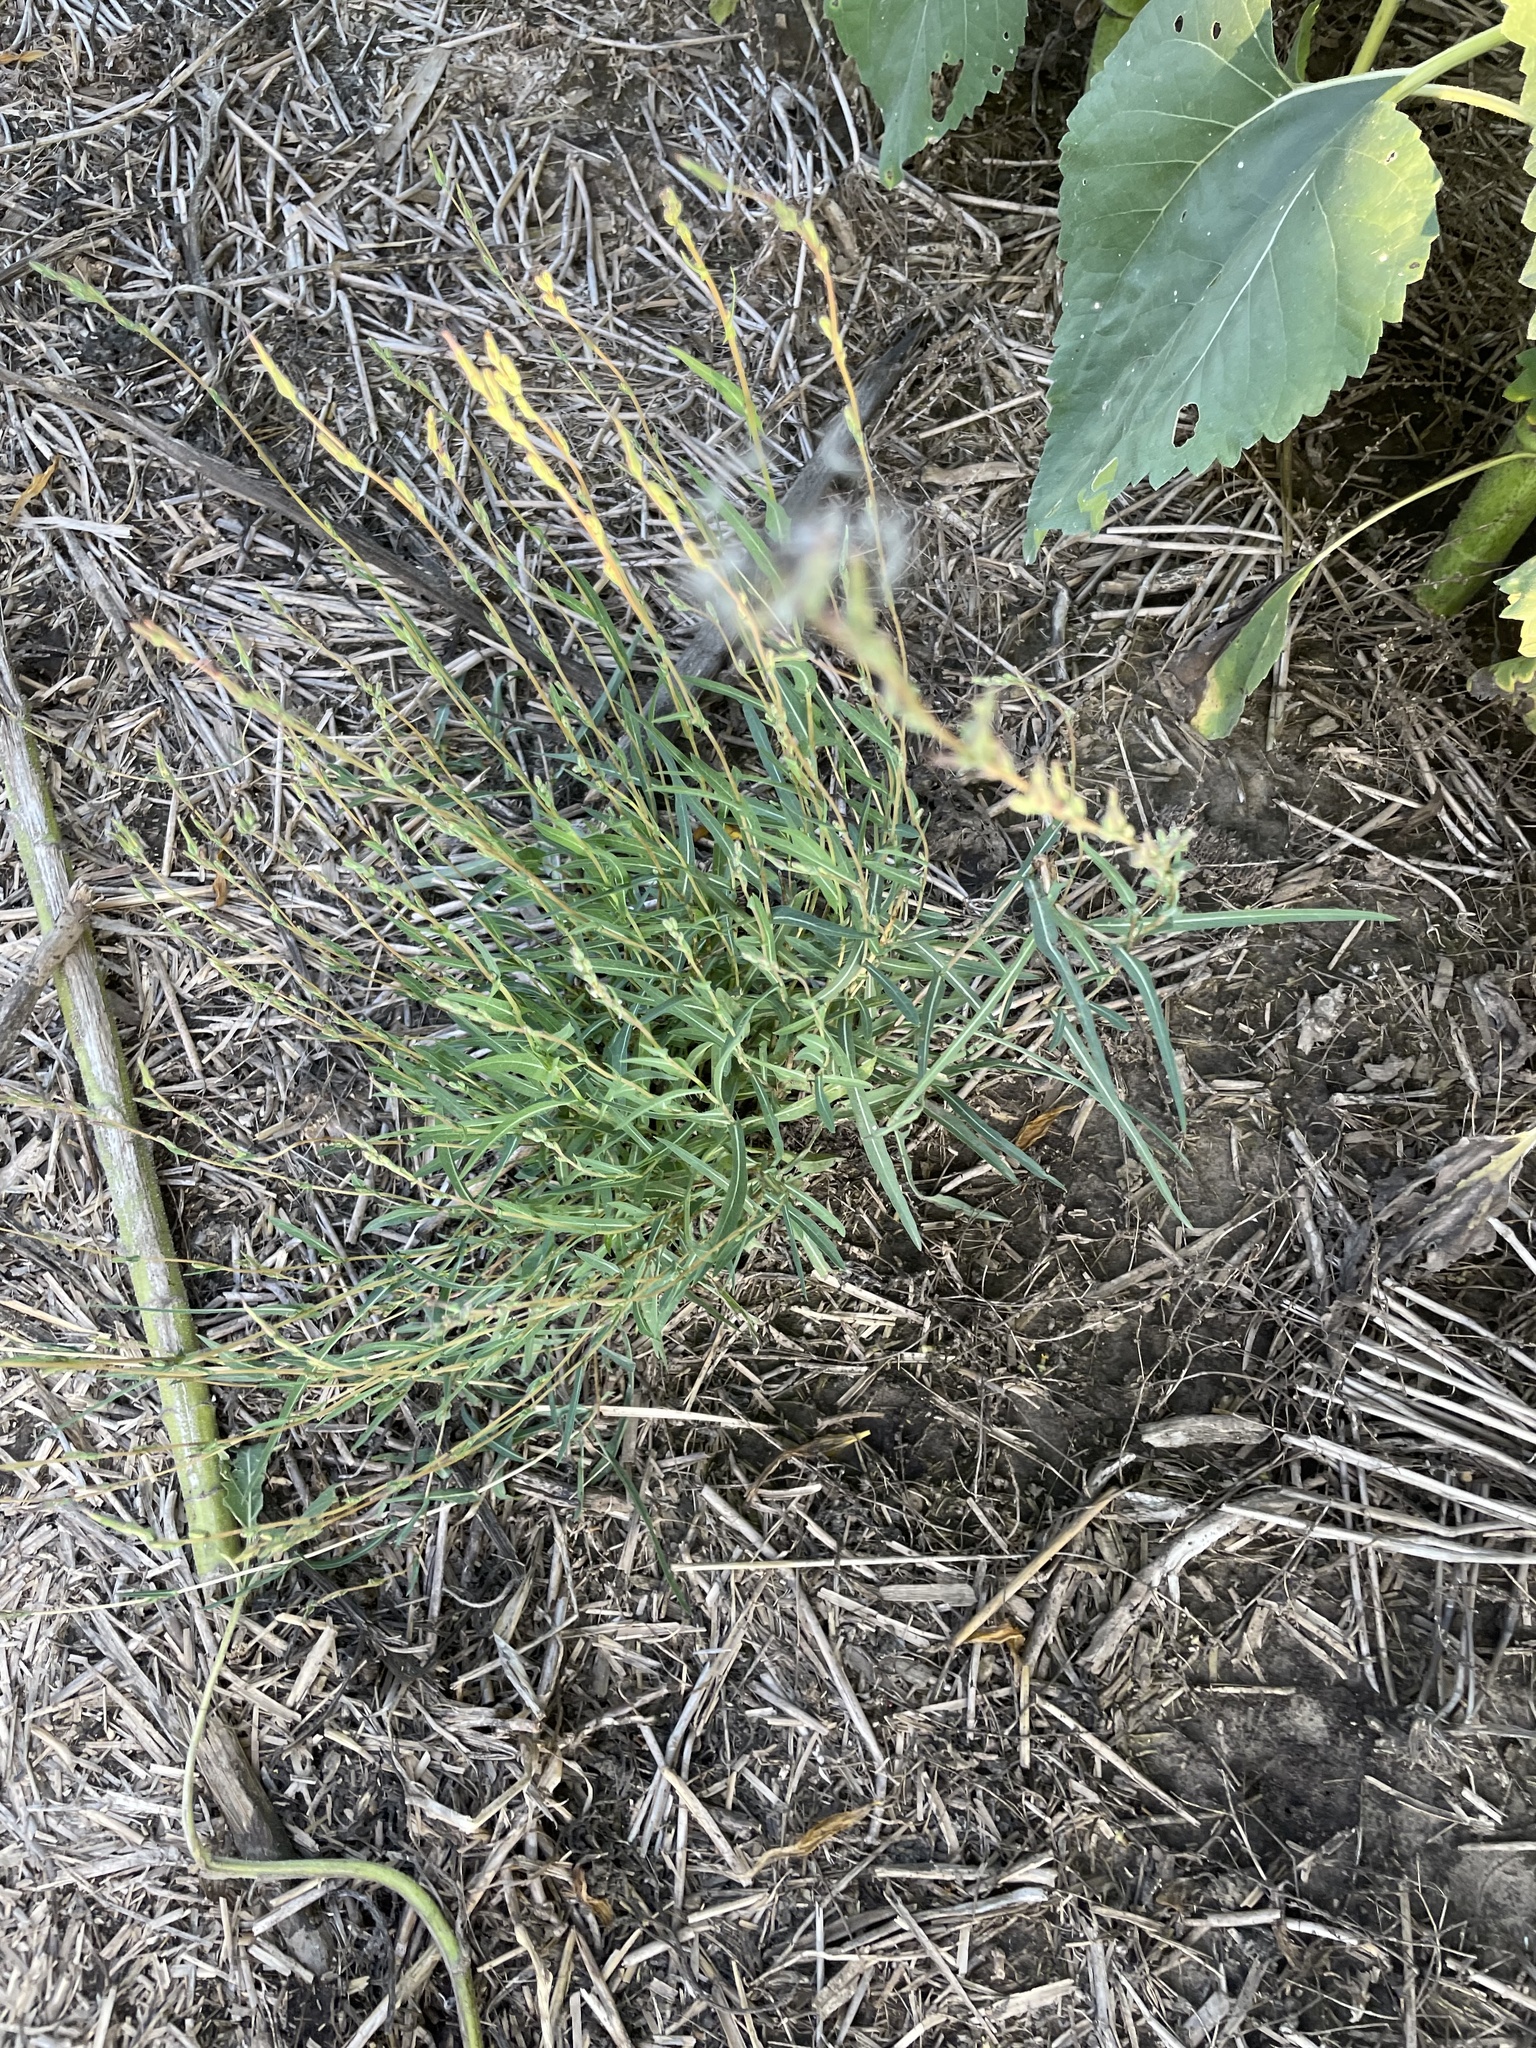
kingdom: Plantae
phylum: Tracheophyta
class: Magnoliopsida
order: Asterales
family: Asteraceae
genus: Lactuca
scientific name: Lactuca saligna
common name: Wild lettuce
